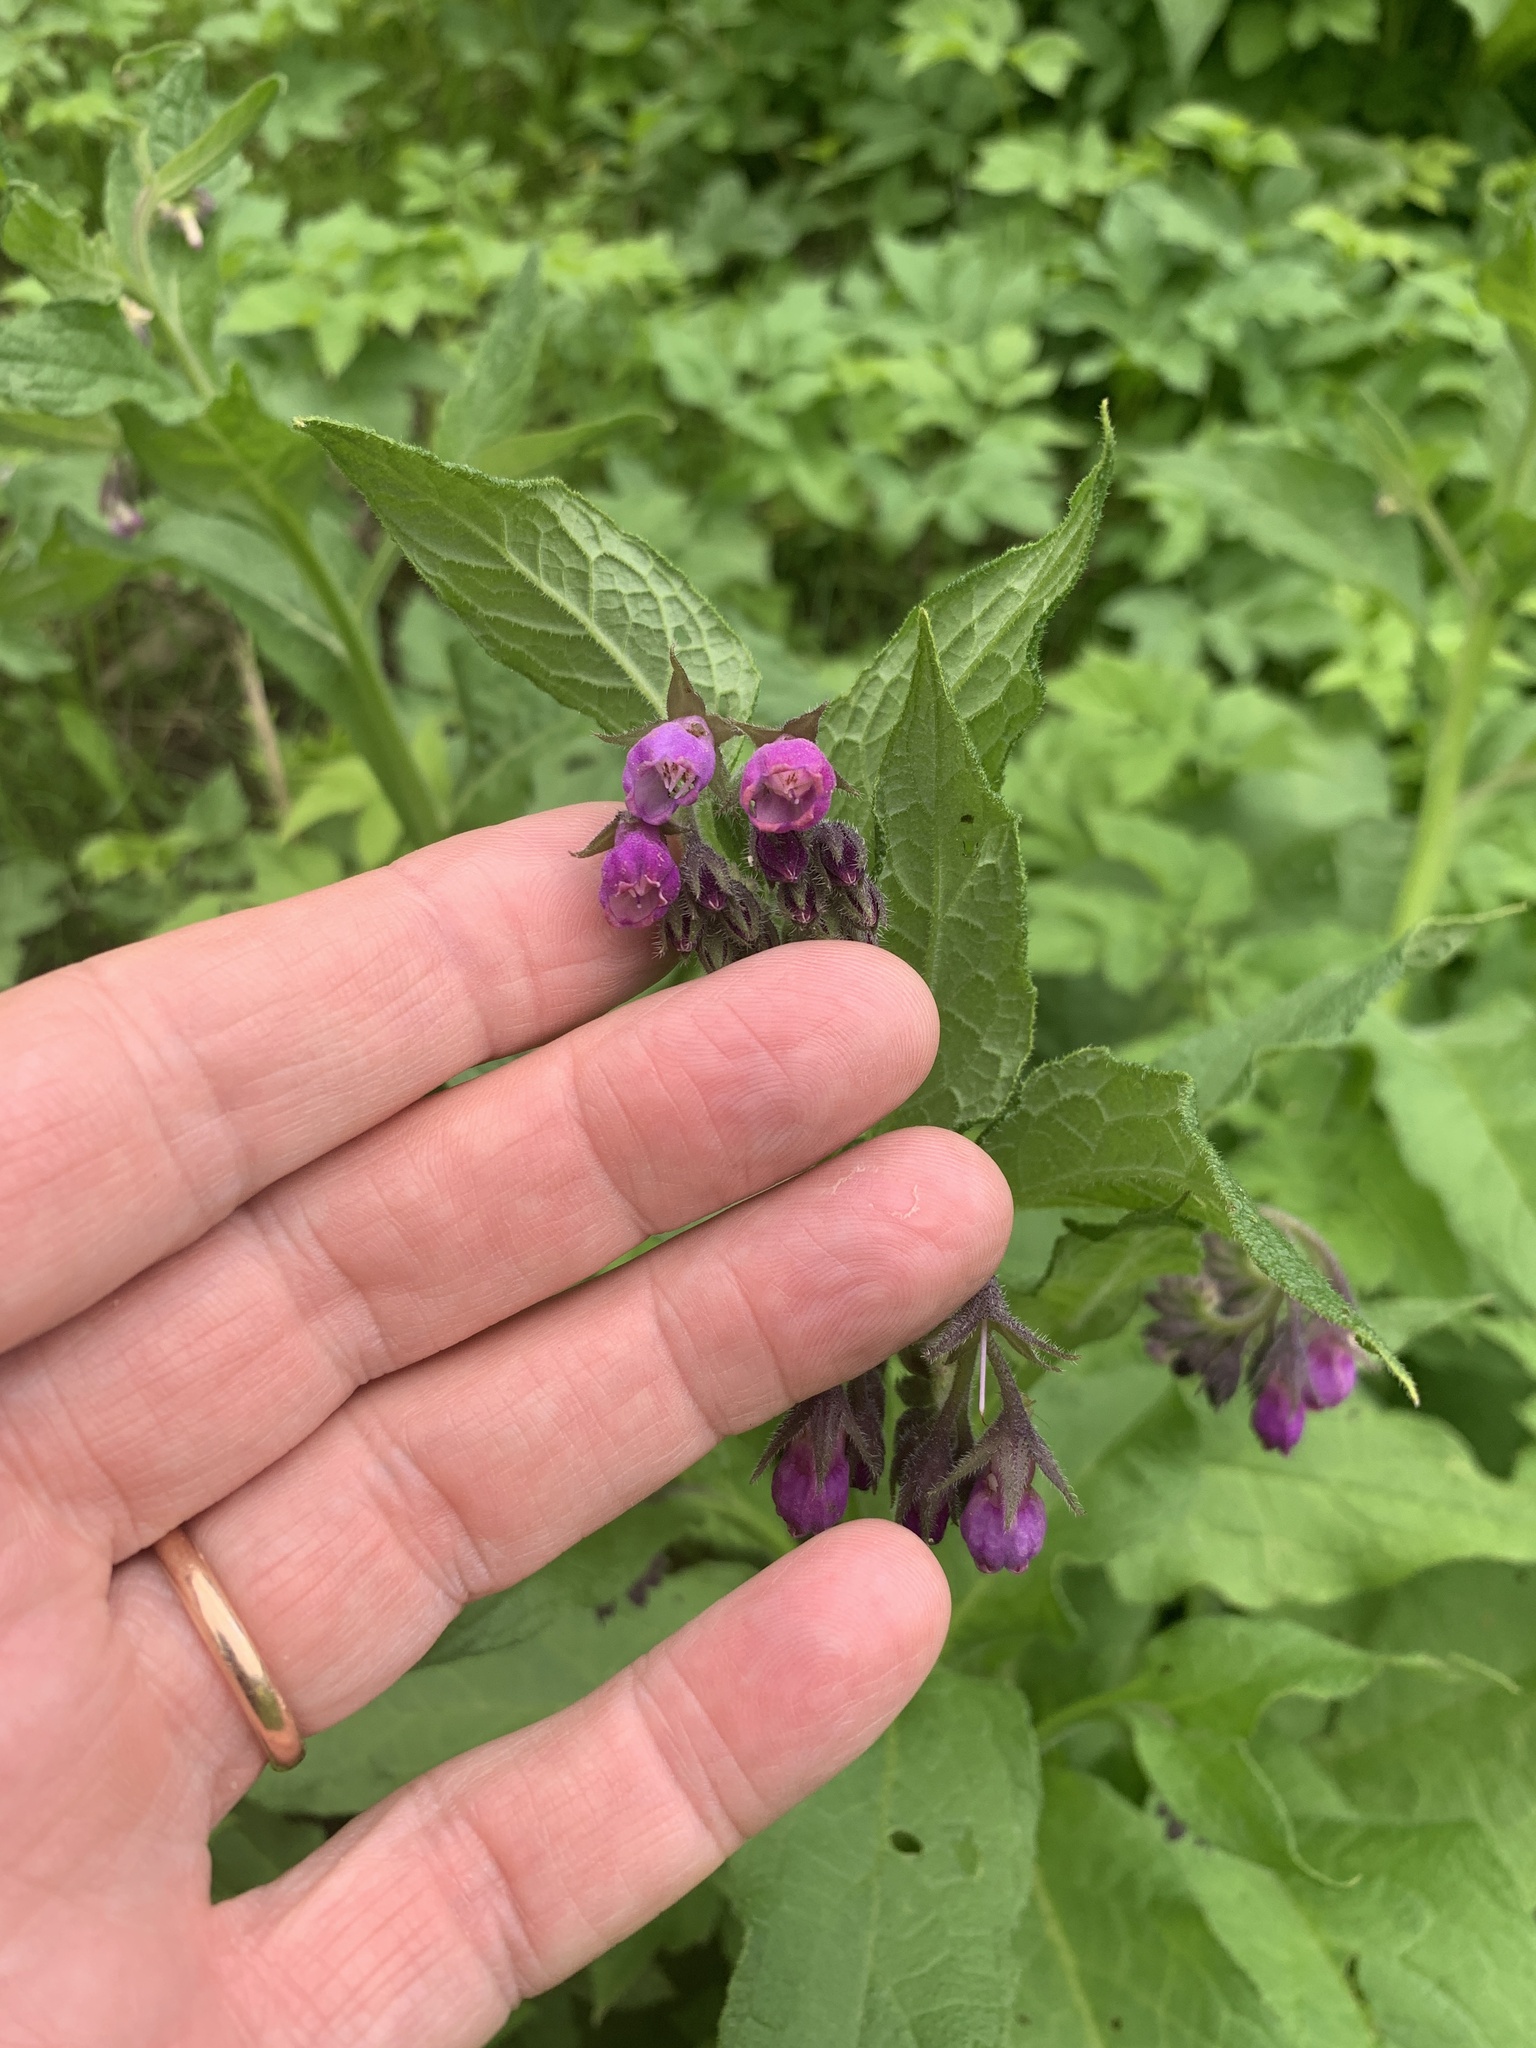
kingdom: Plantae
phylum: Tracheophyta
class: Magnoliopsida
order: Boraginales
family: Boraginaceae
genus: Symphytum
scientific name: Symphytum officinale
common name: Common comfrey
